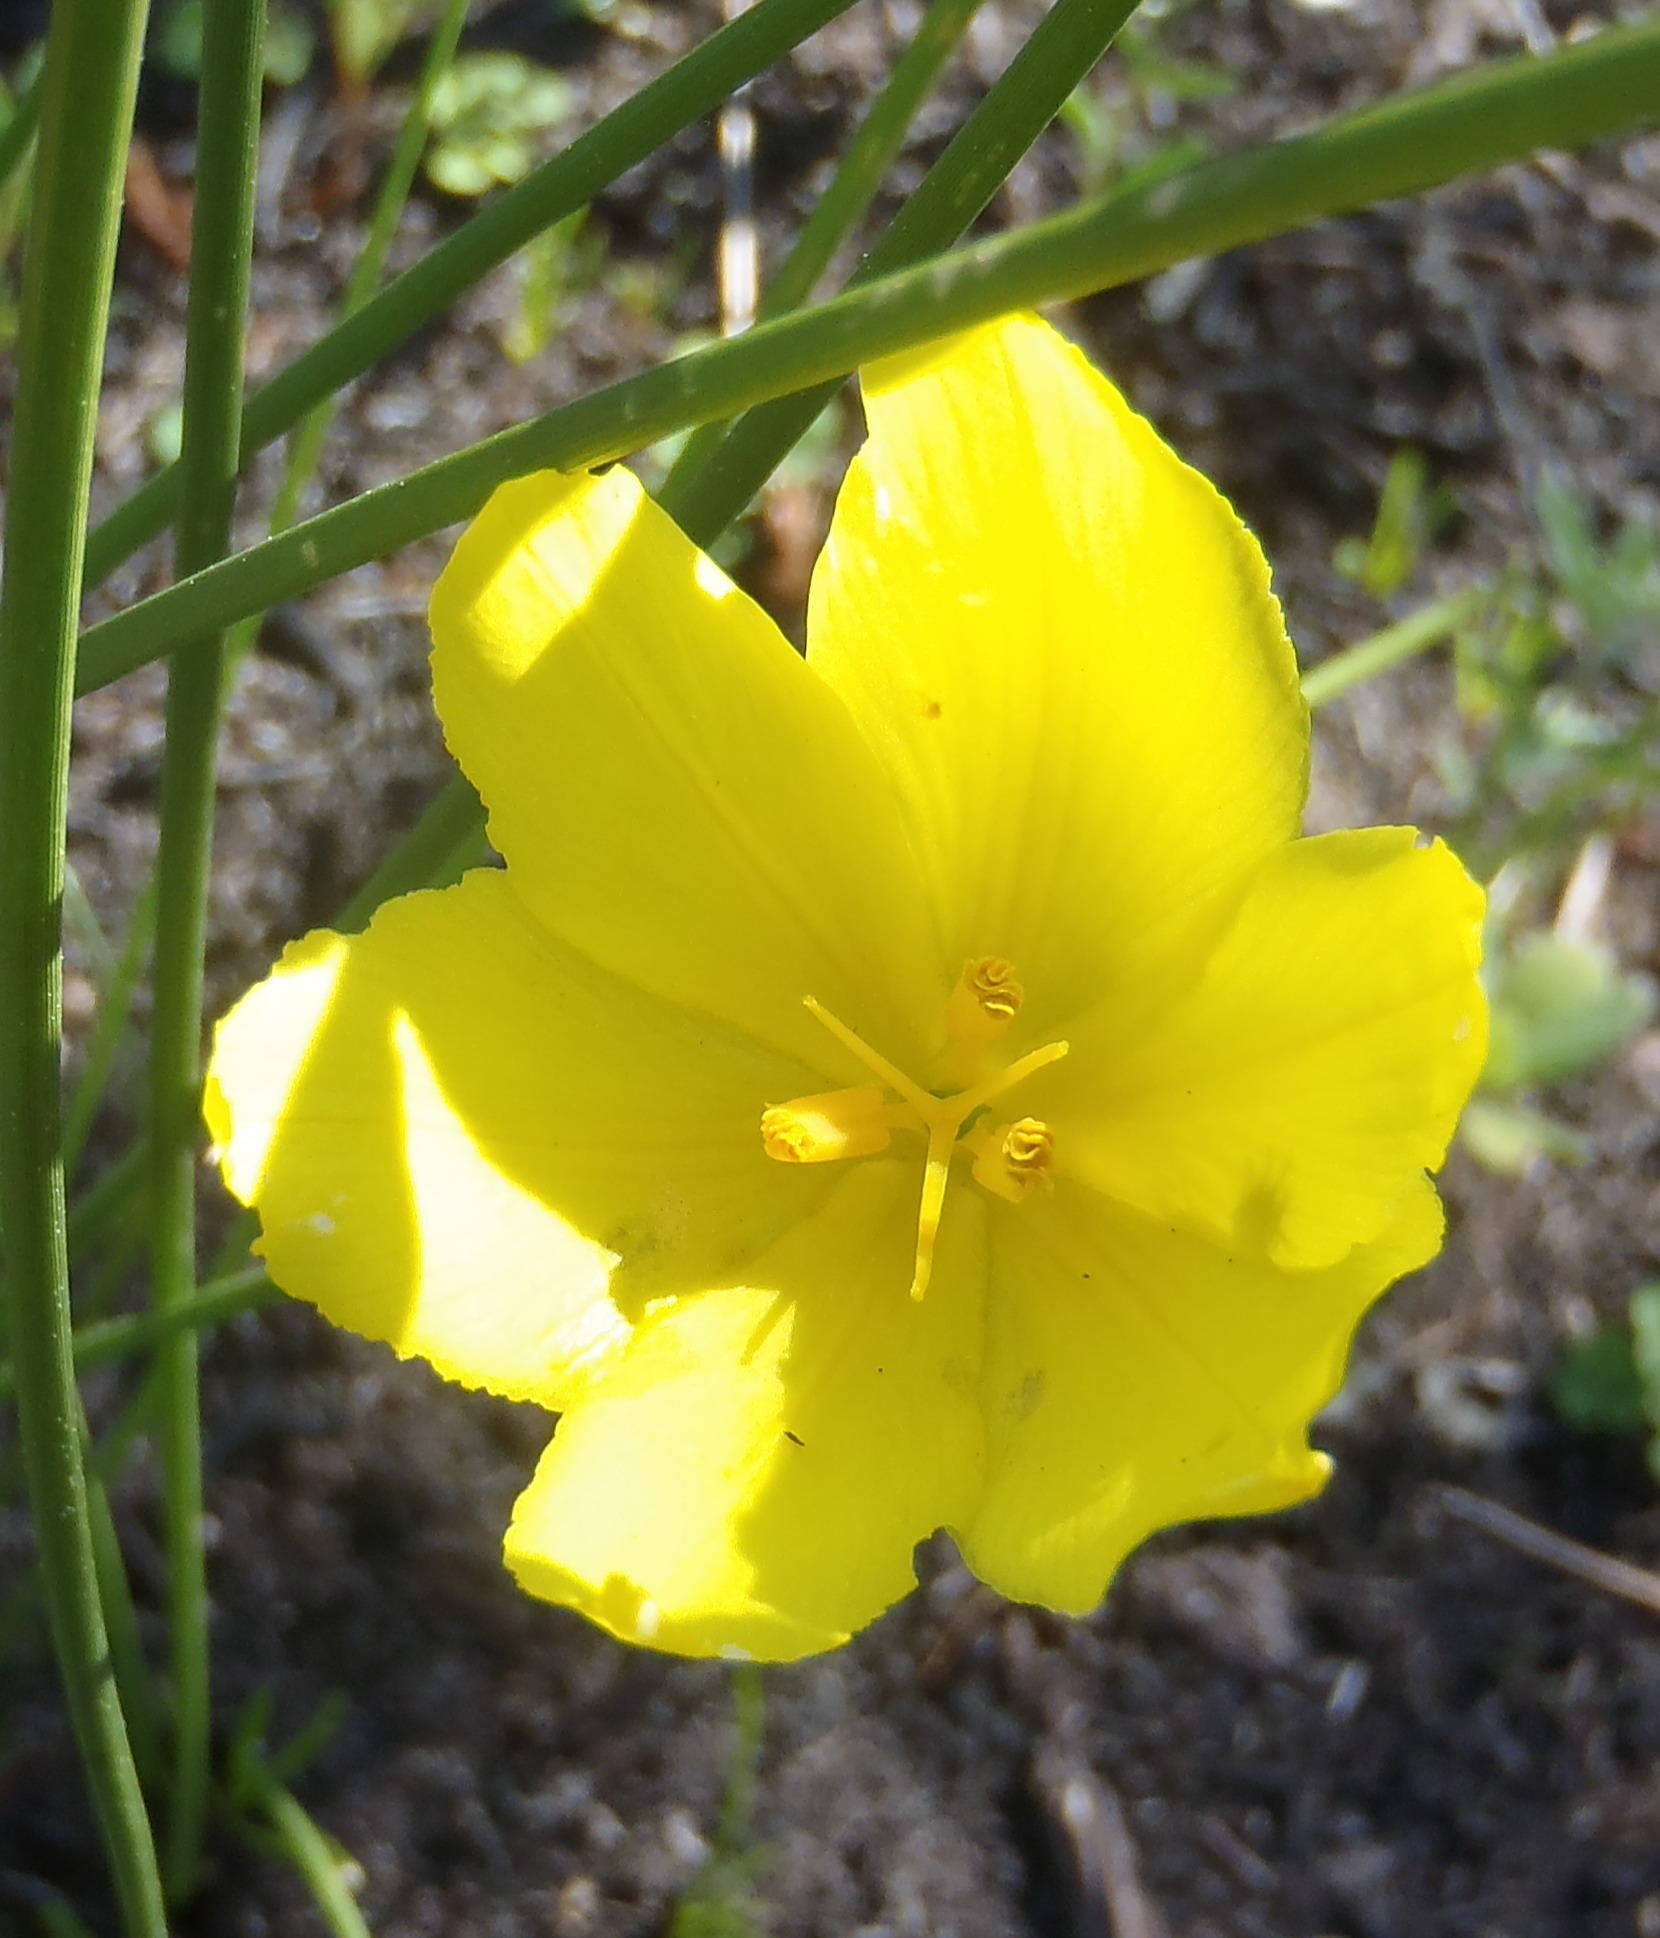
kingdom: Plantae
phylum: Tracheophyta
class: Liliopsida
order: Asparagales
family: Iridaceae
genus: Bobartia
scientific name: Bobartia aphylla
